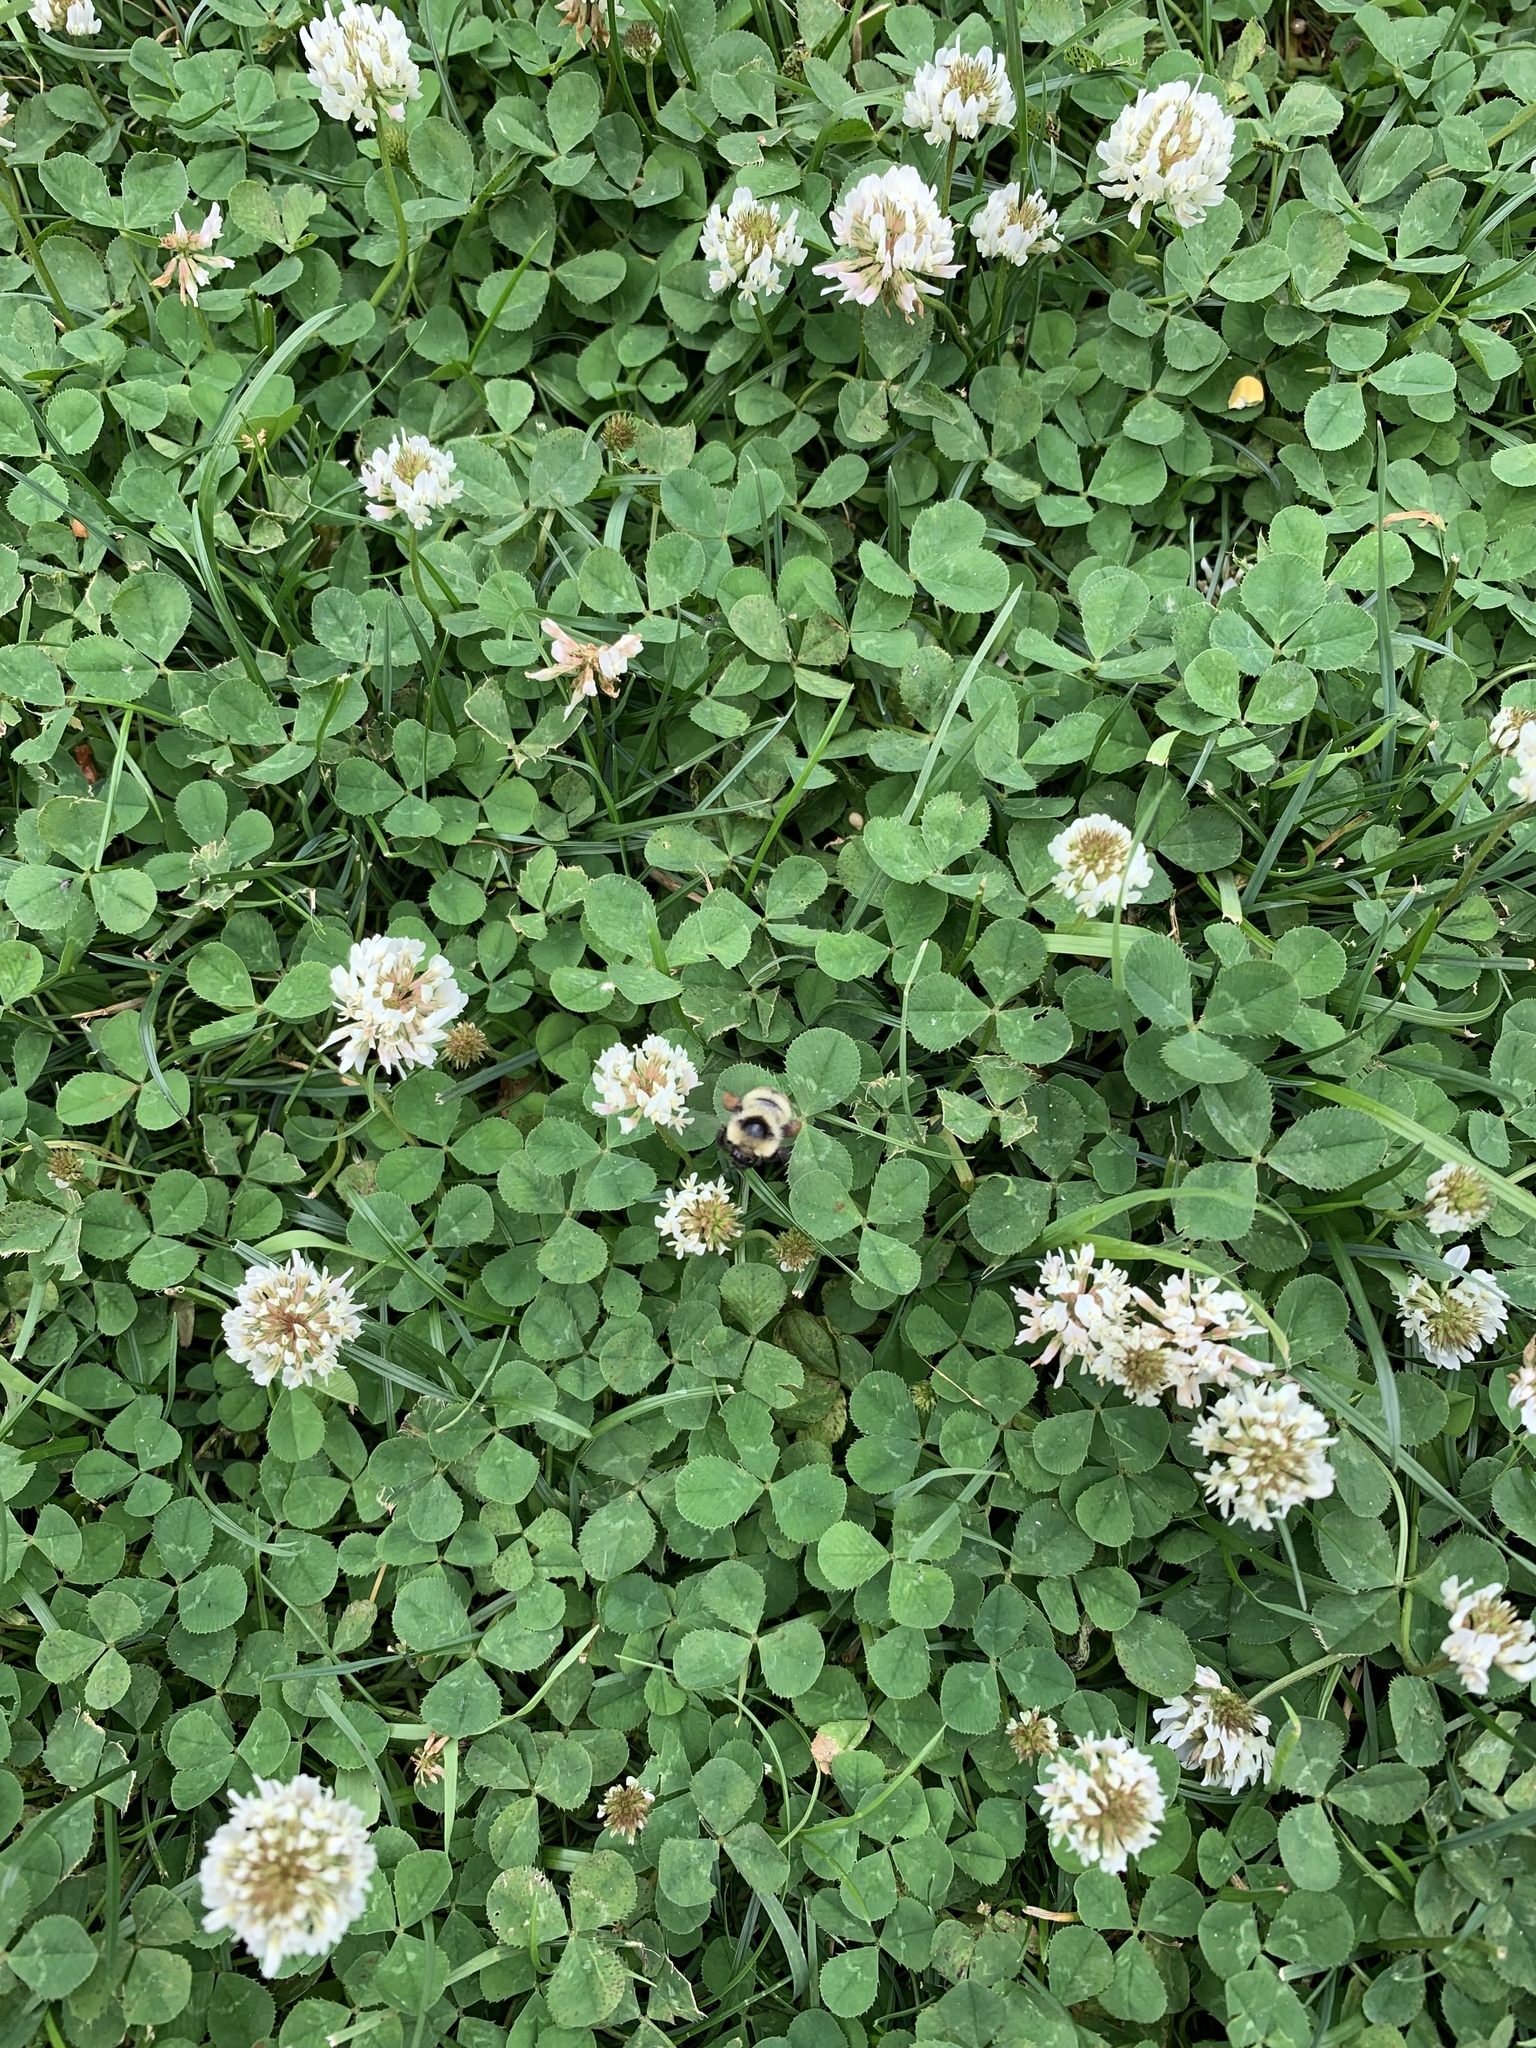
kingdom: Animalia
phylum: Arthropoda
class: Insecta
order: Hymenoptera
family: Apidae
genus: Bombus
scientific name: Bombus rufocinctus
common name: Red-belted bumble bee
